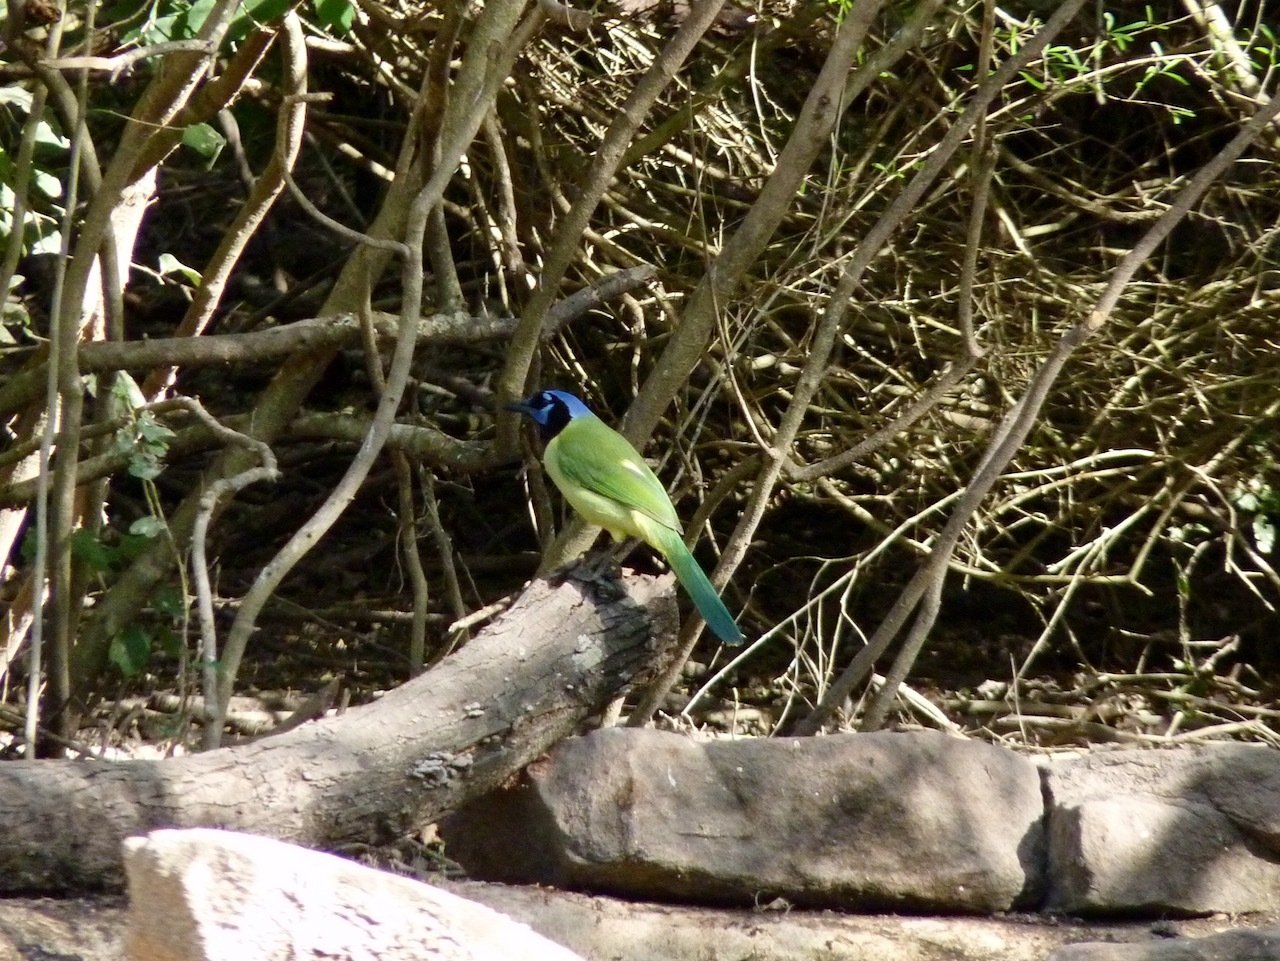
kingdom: Animalia
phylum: Chordata
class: Aves
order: Passeriformes
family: Corvidae
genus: Cyanocorax
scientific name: Cyanocorax yncas
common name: Green jay
